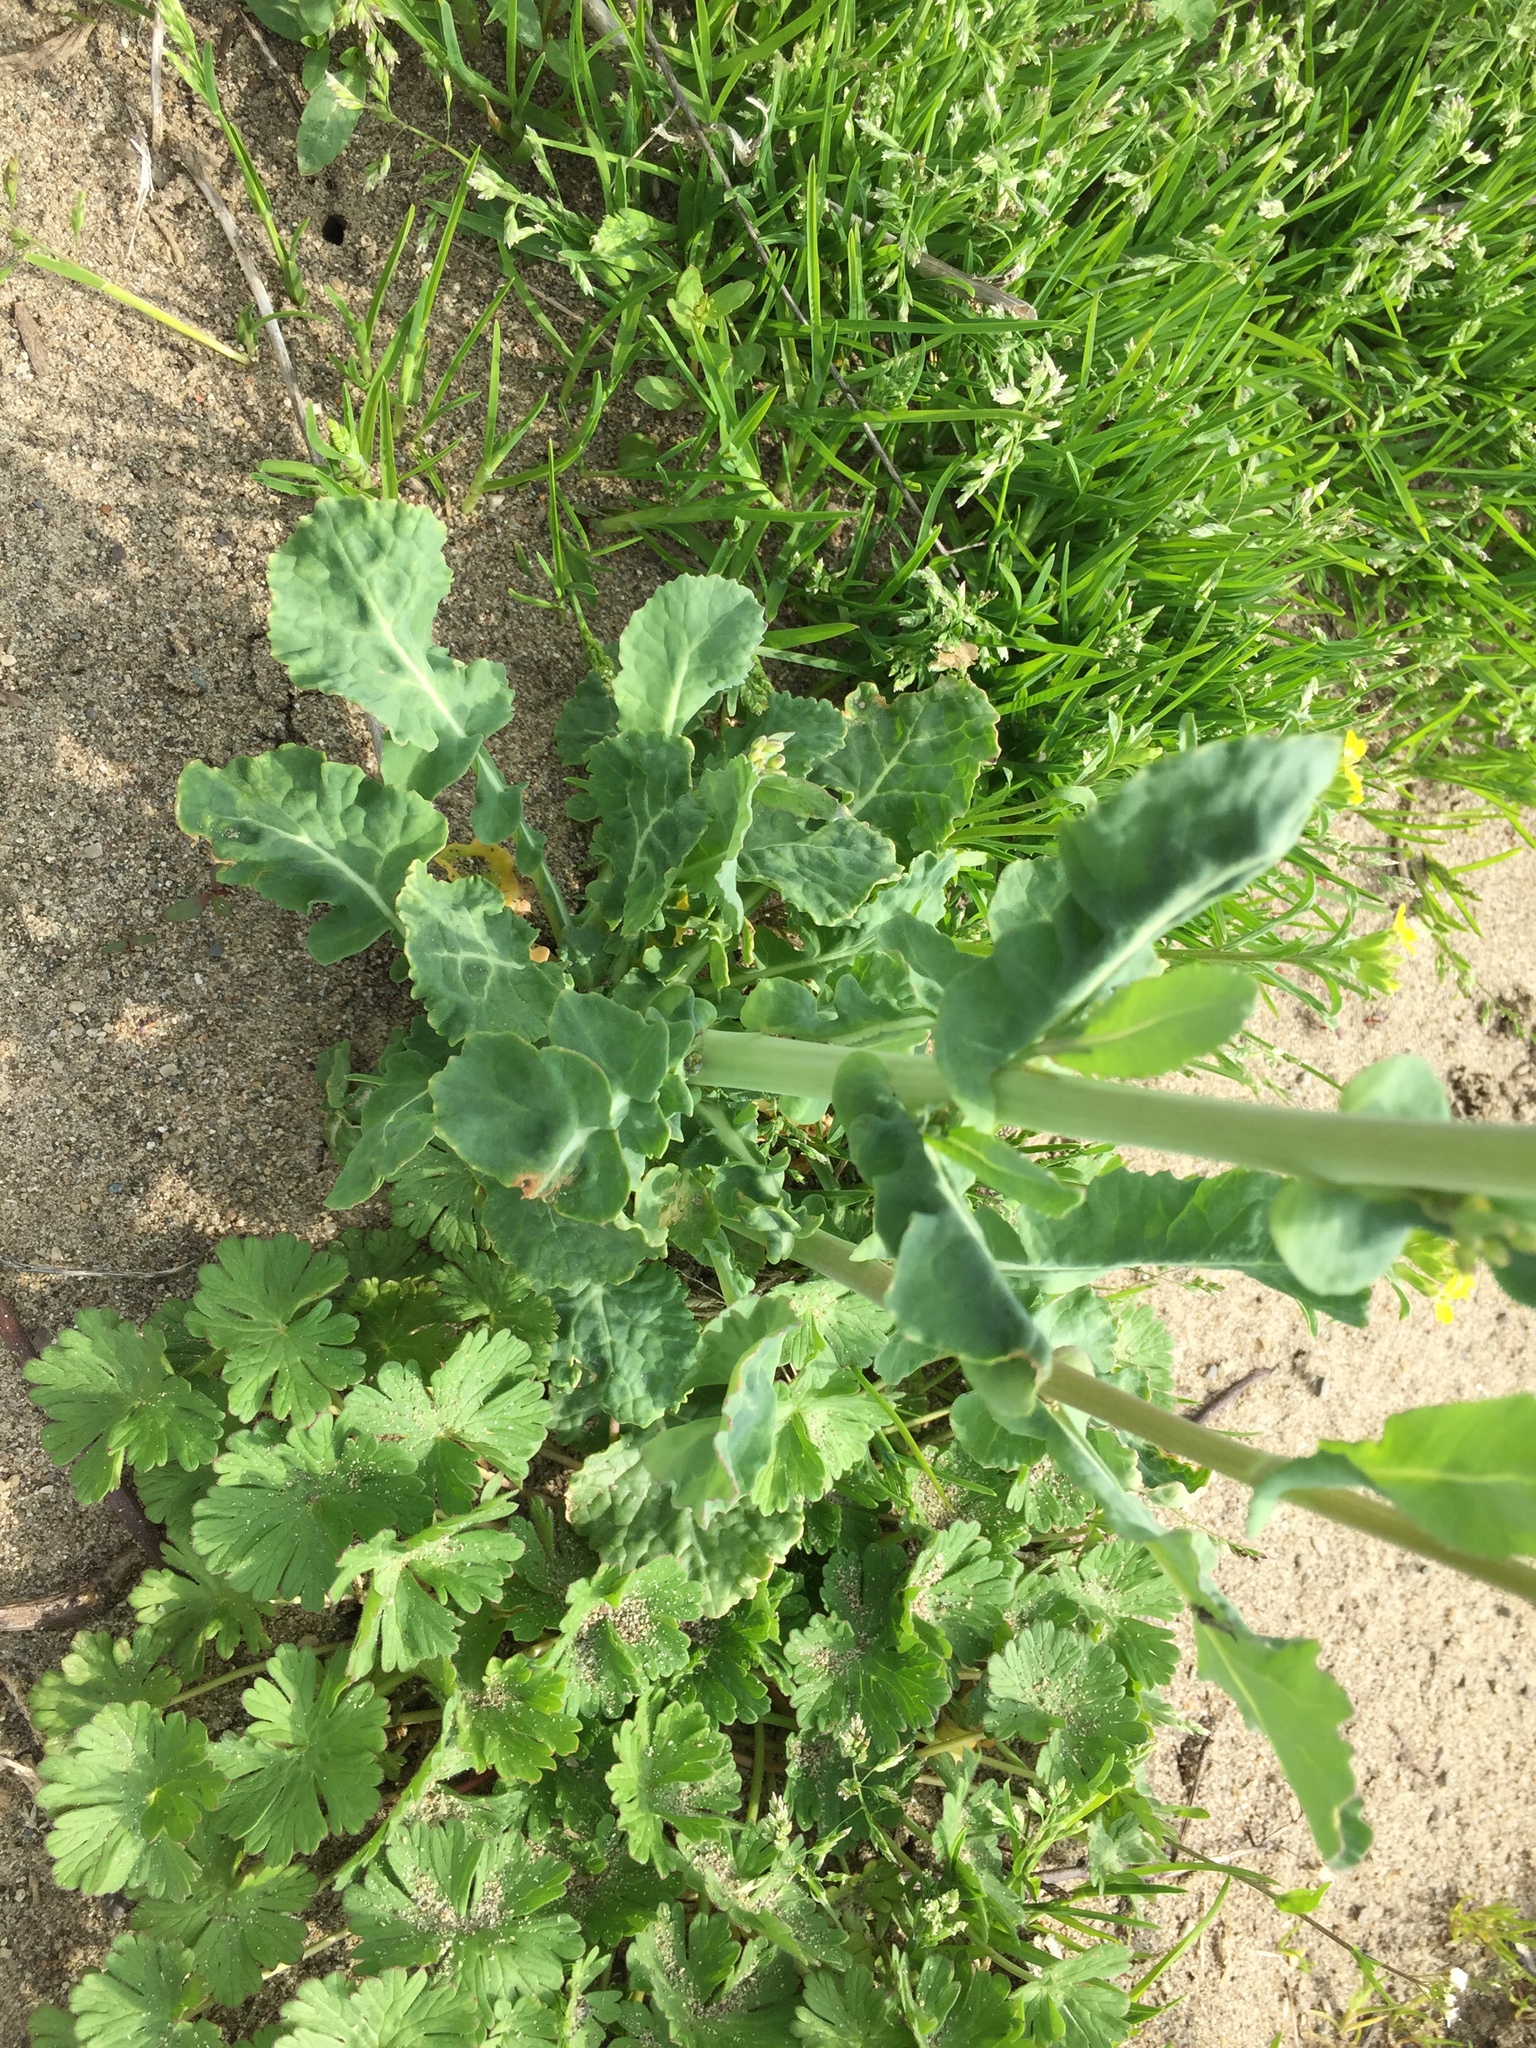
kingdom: Plantae
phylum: Tracheophyta
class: Magnoliopsida
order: Brassicales
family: Brassicaceae
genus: Brassica
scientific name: Brassica napus
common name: Rape
